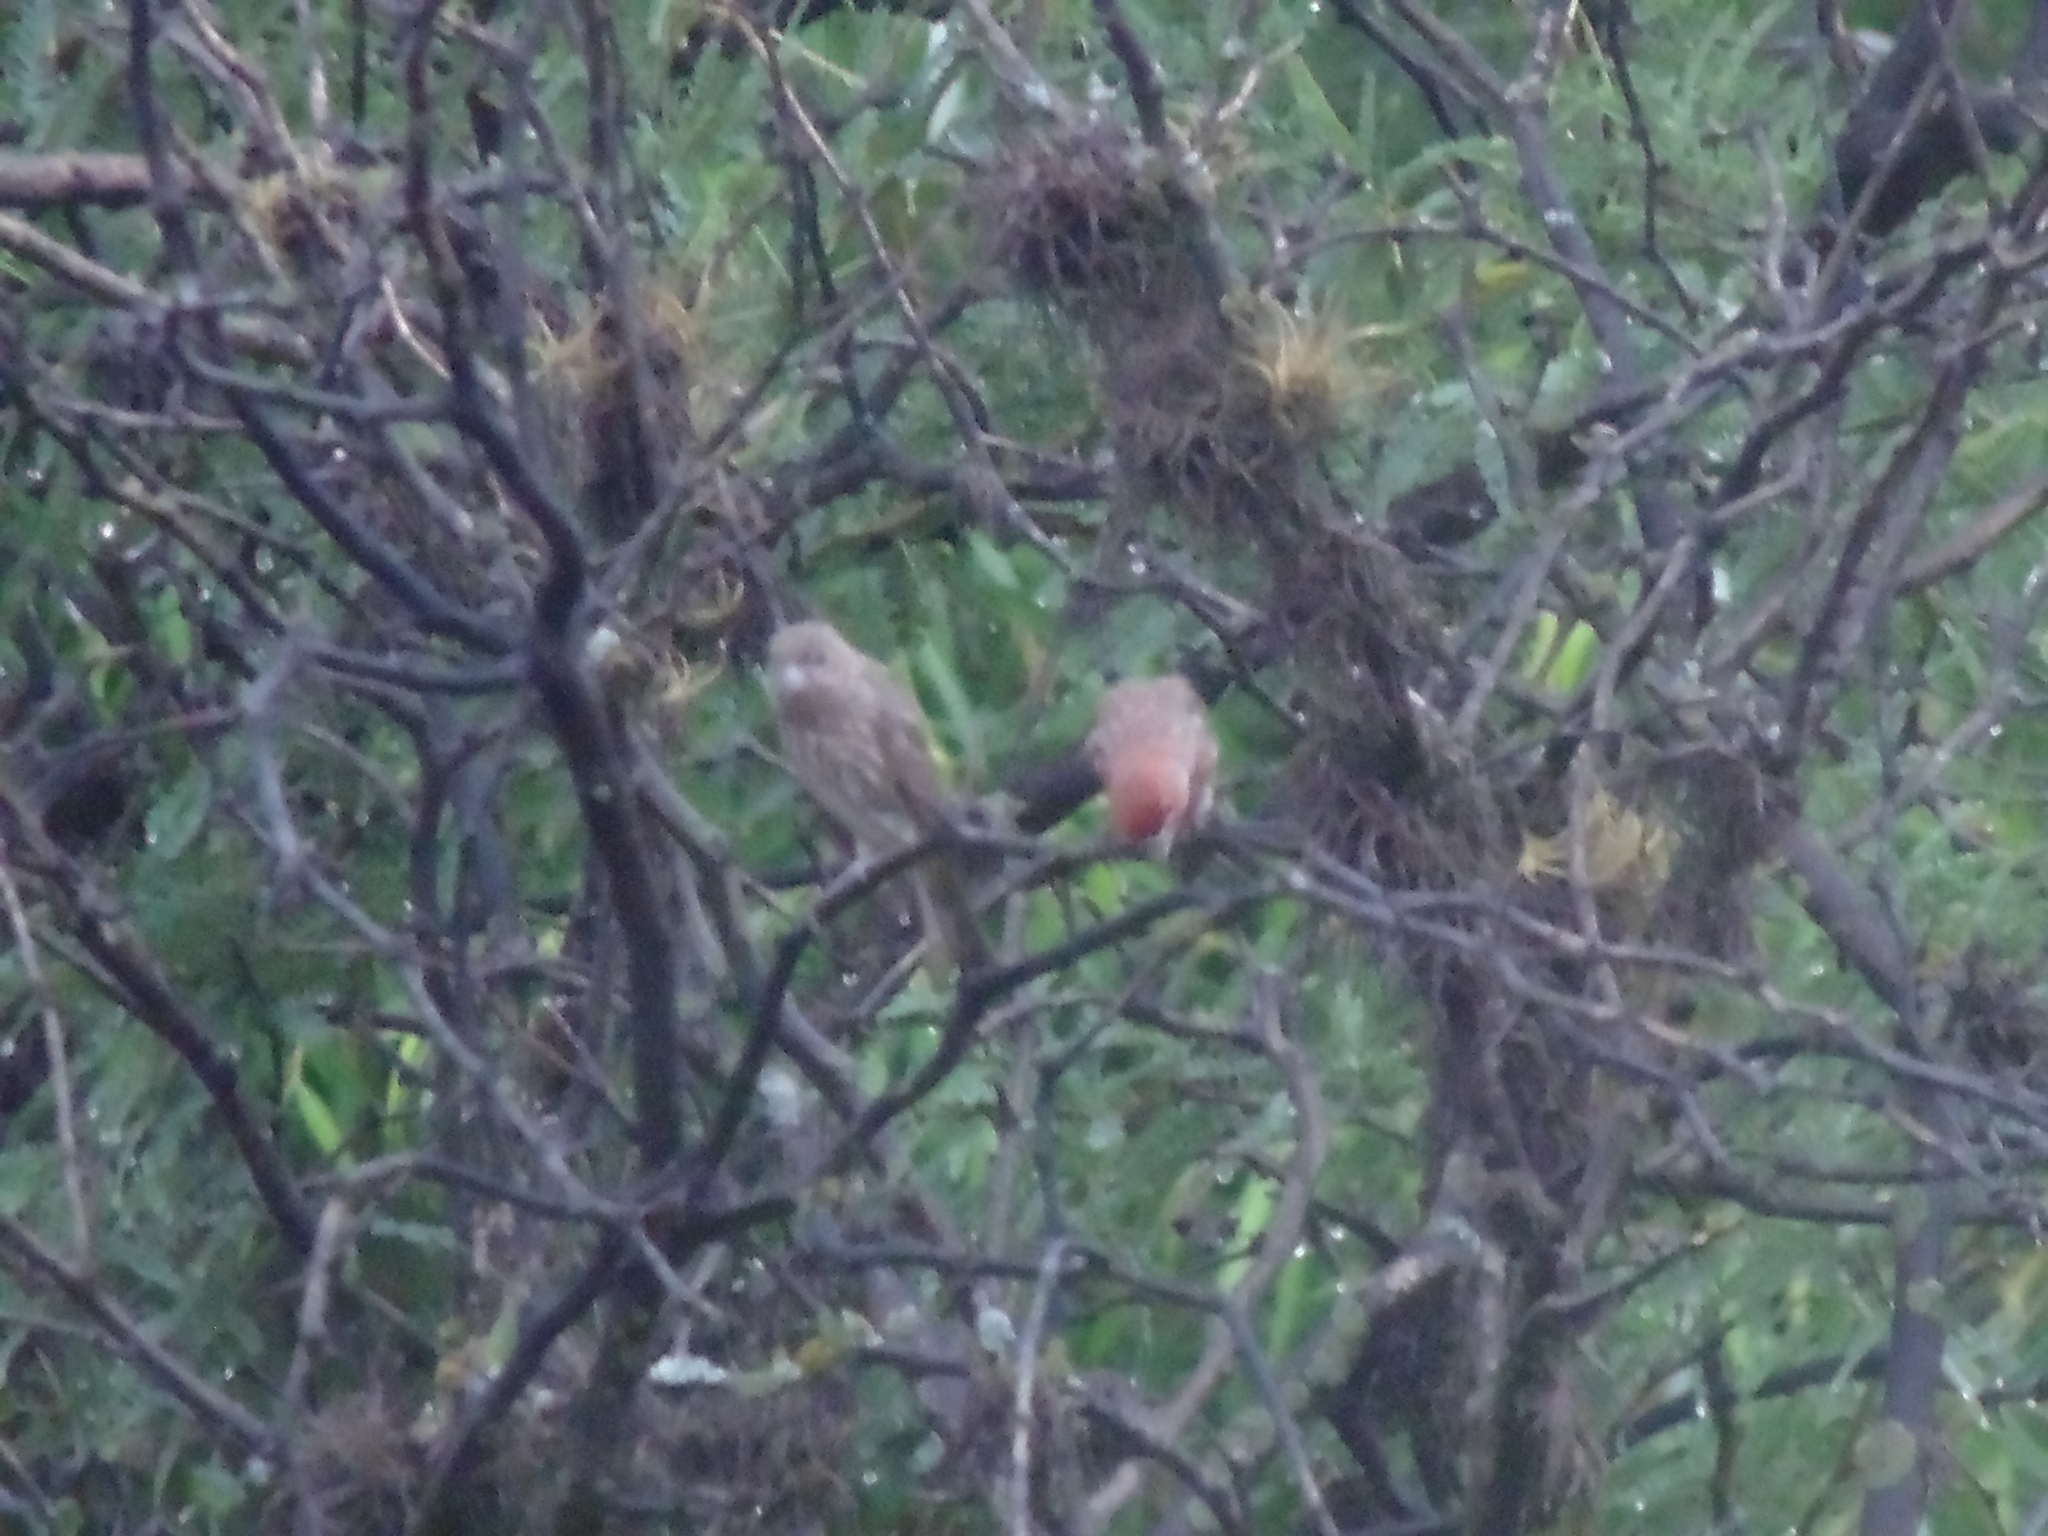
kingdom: Animalia
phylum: Chordata
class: Aves
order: Passeriformes
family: Fringillidae
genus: Haemorhous
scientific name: Haemorhous mexicanus
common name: House finch
